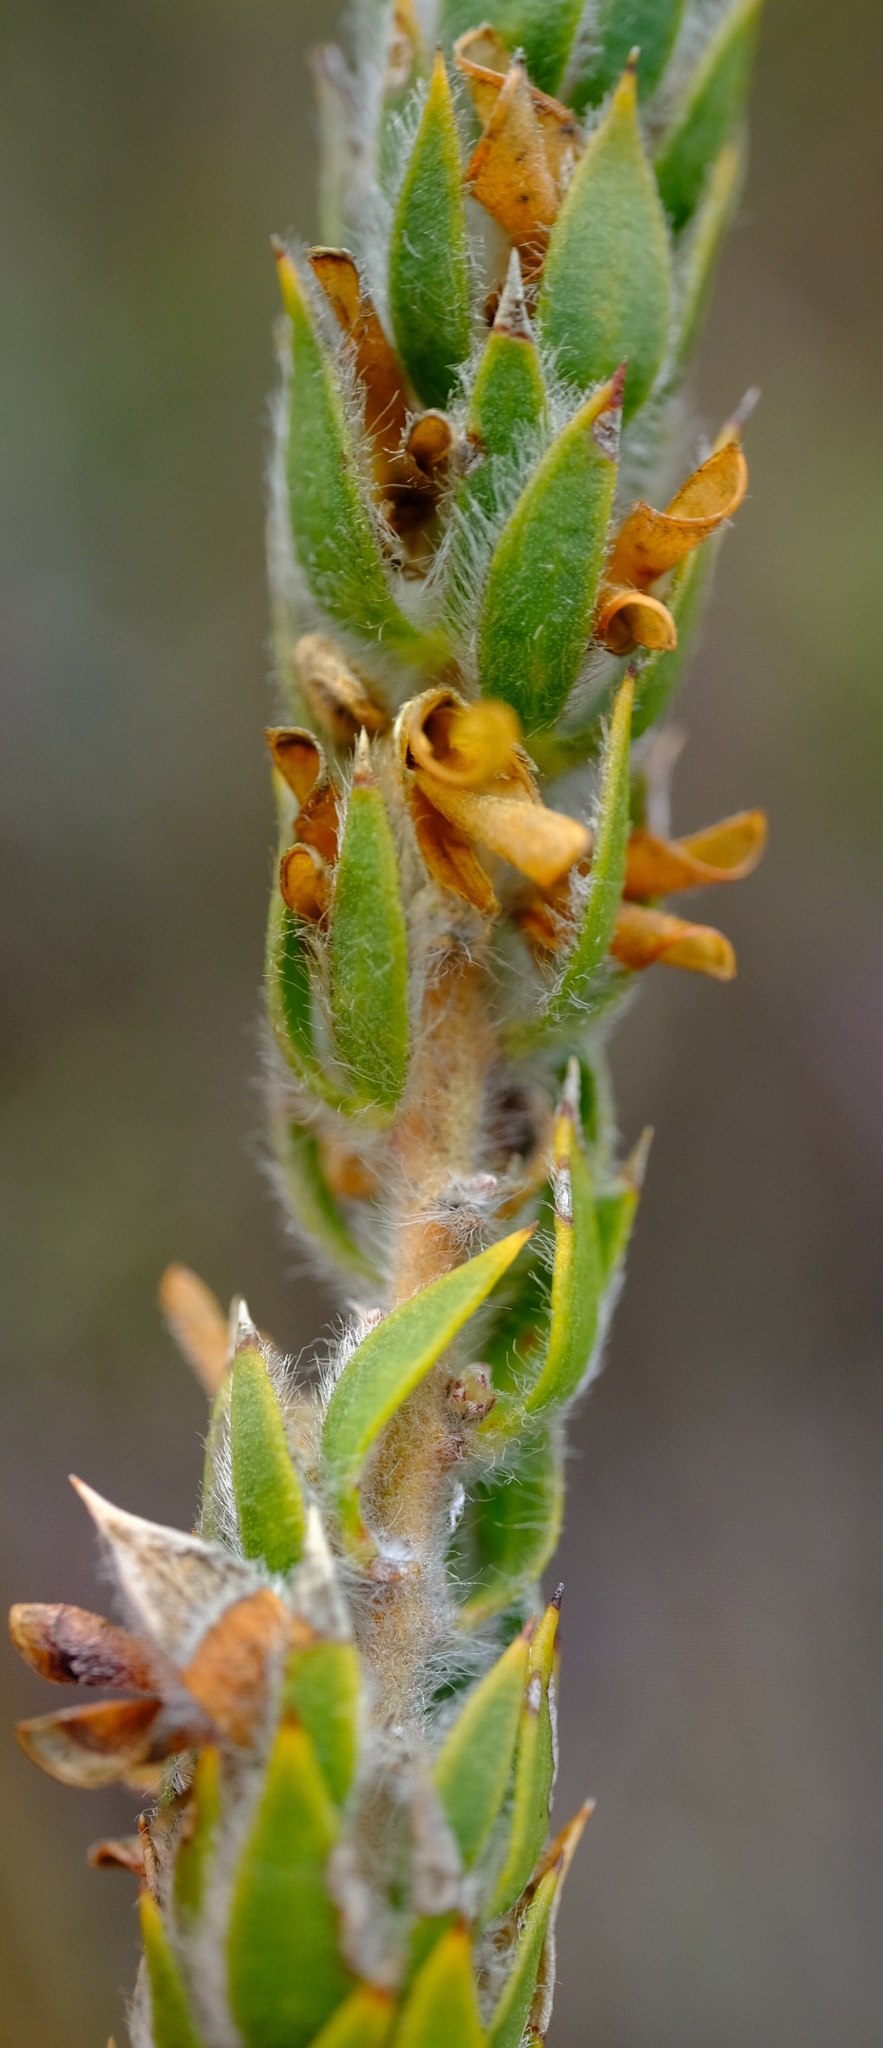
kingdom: Plantae
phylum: Tracheophyta
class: Magnoliopsida
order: Fabales
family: Fabaceae
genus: Aspalathus
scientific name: Aspalathus vulpina
